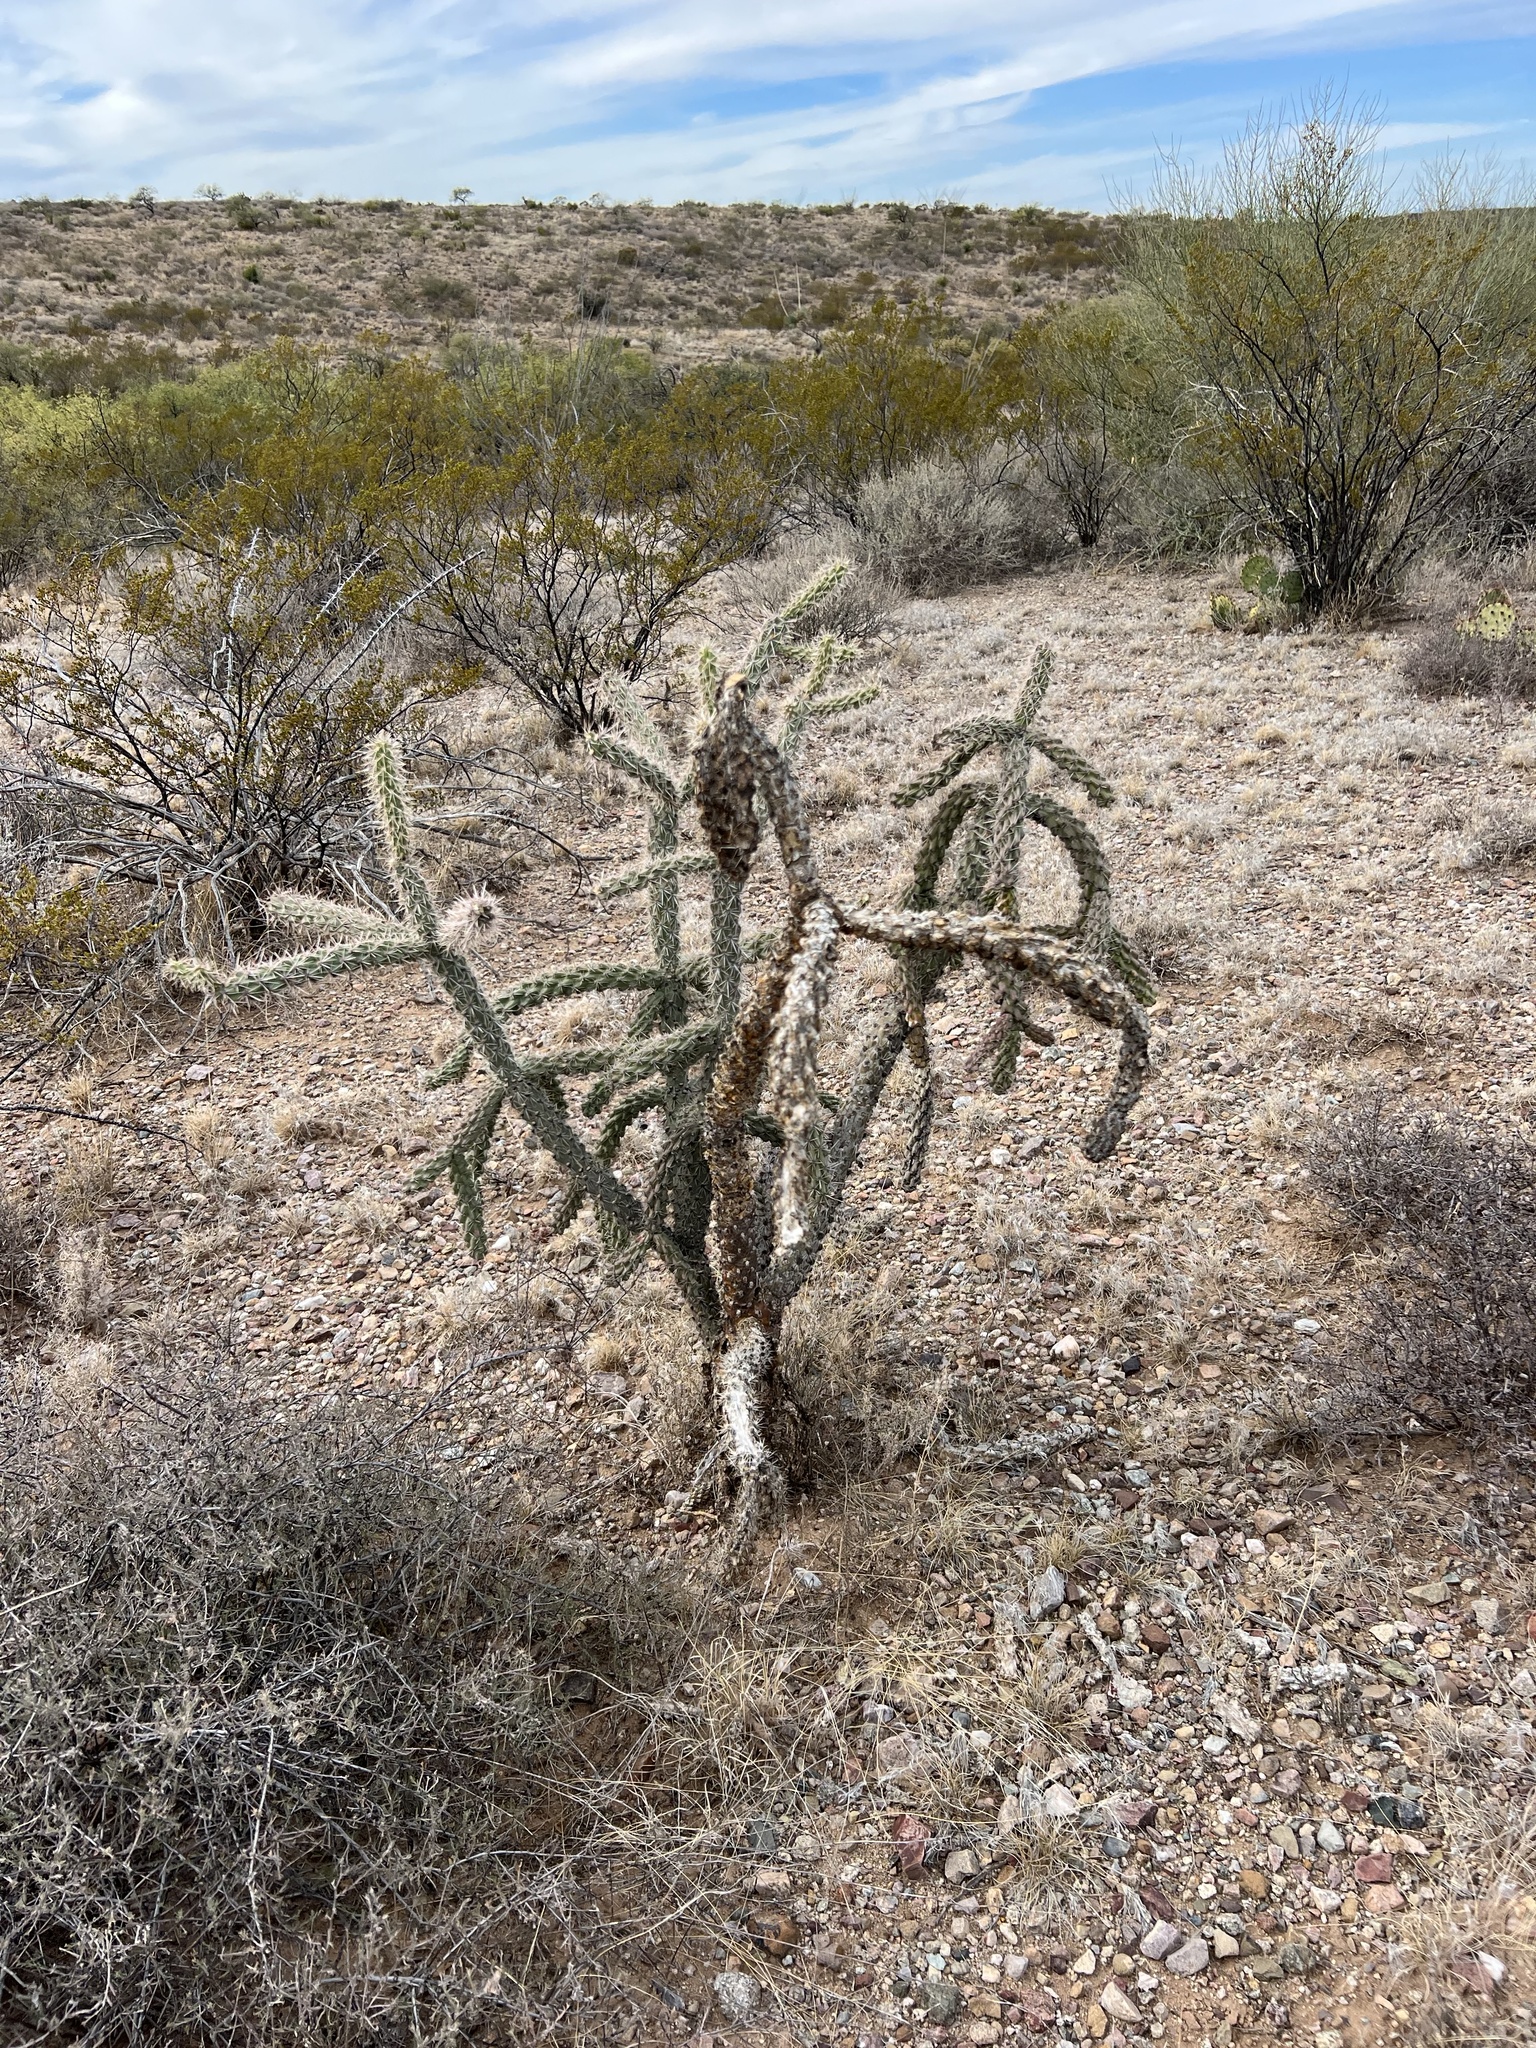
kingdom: Plantae
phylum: Tracheophyta
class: Magnoliopsida
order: Caryophyllales
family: Cactaceae
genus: Cylindropuntia
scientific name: Cylindropuntia imbricata
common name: Candelabrum cactus
